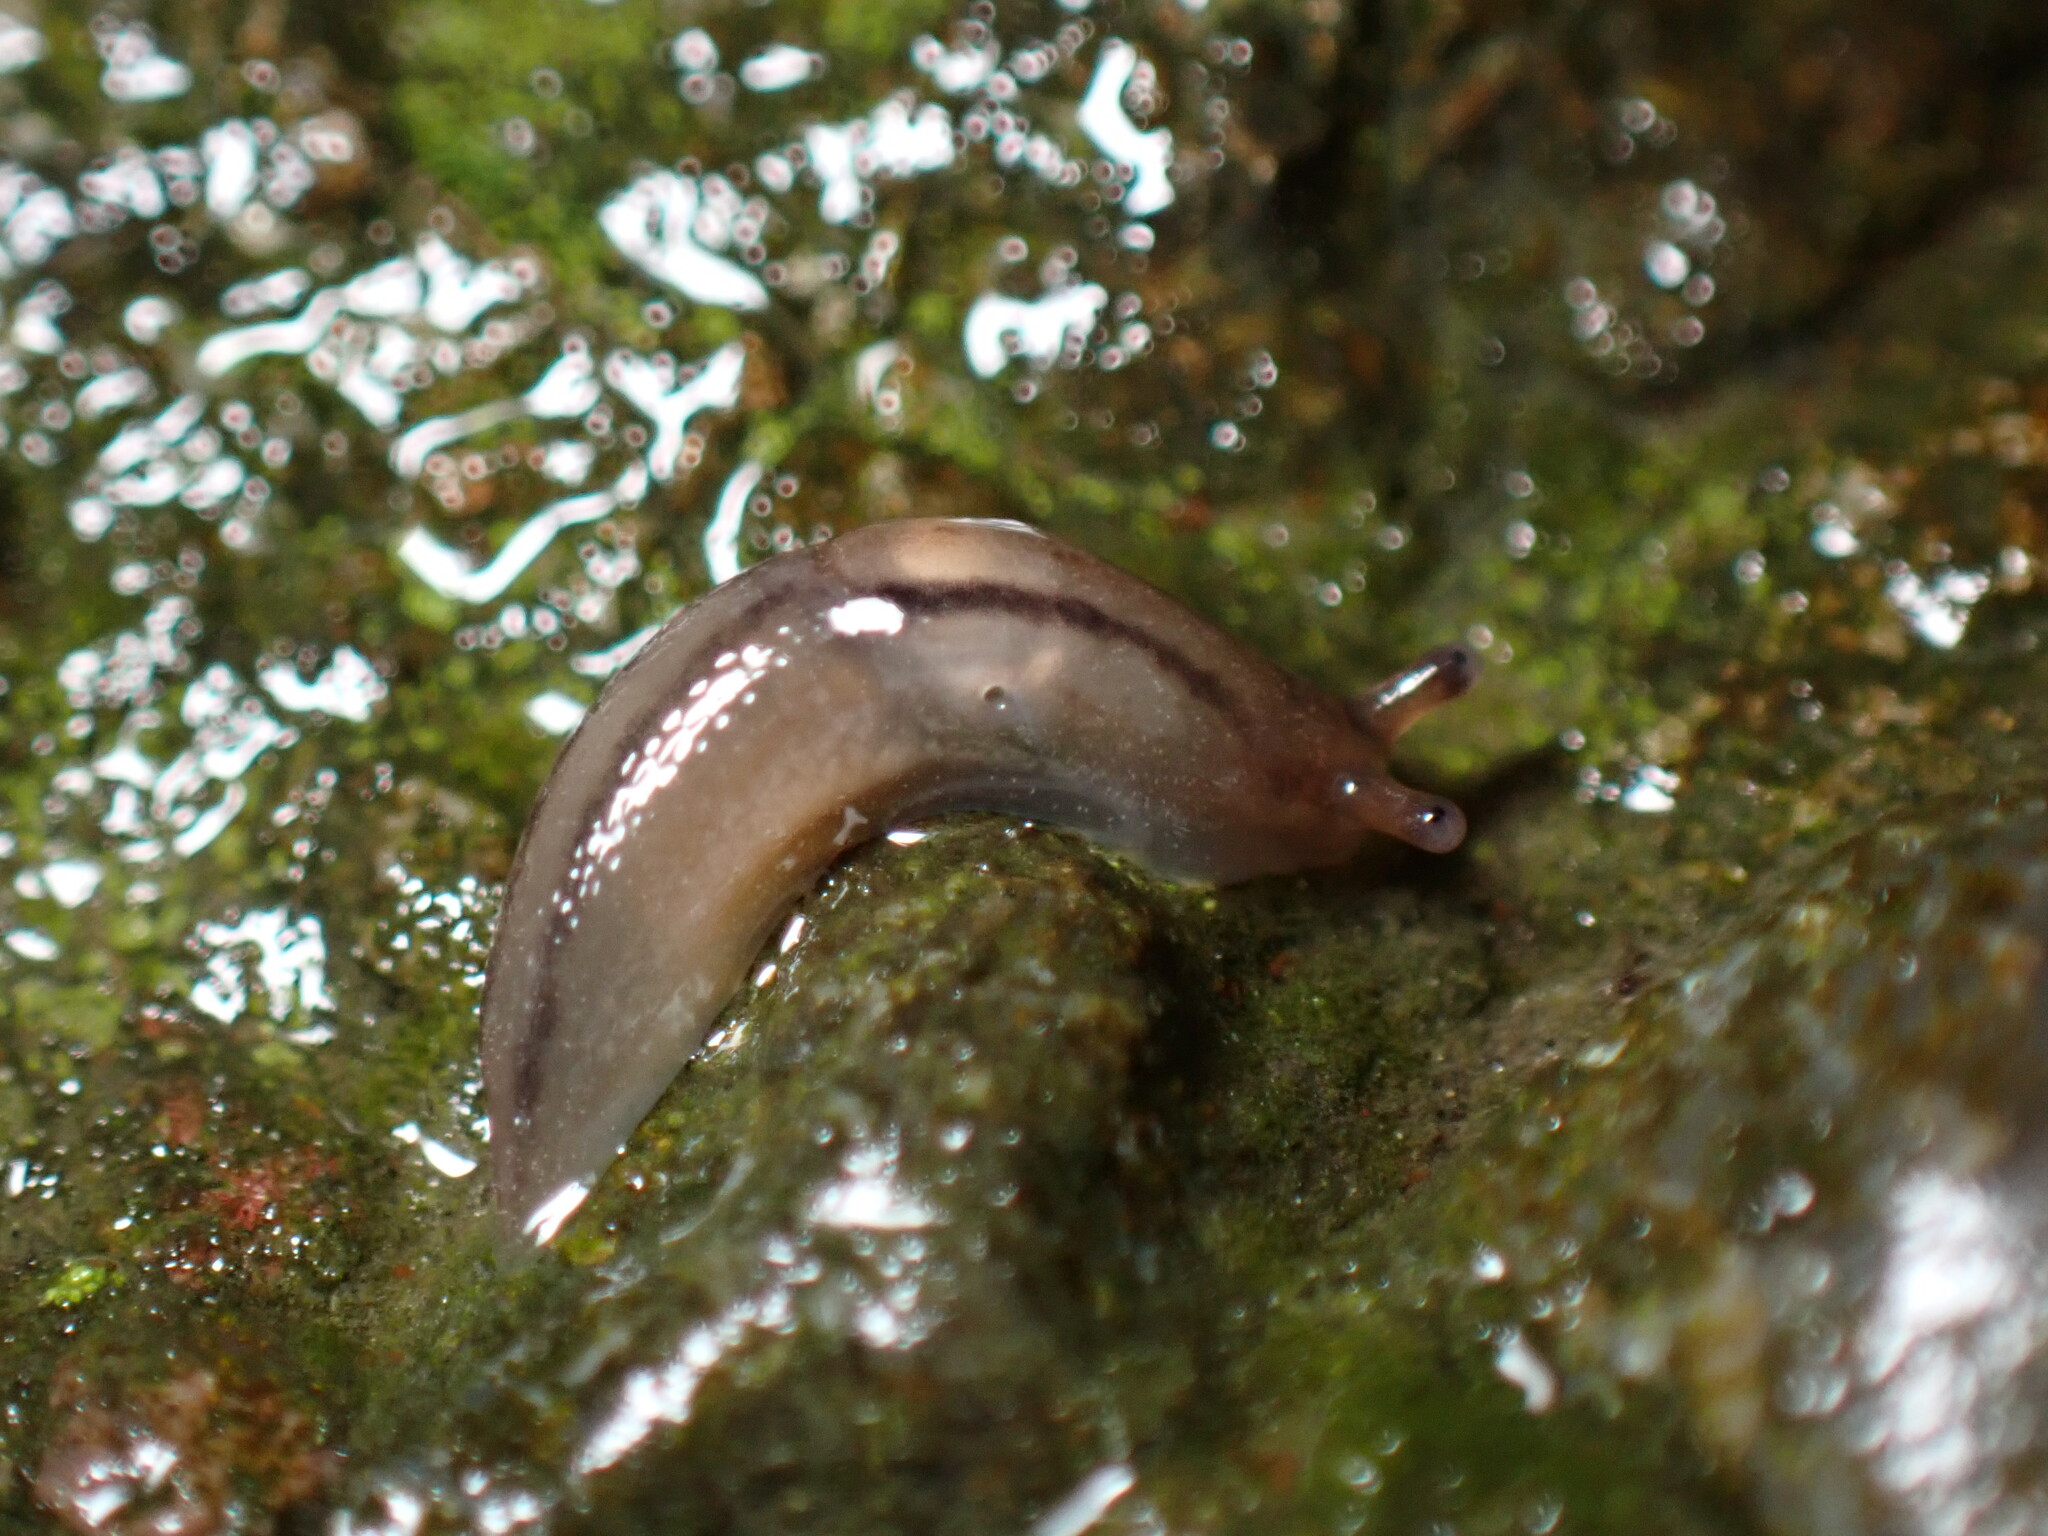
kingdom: Animalia
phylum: Mollusca
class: Gastropoda
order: Stylommatophora
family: Limacidae
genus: Ambigolimax
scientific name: Ambigolimax valentianus
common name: Greenhouse slug
